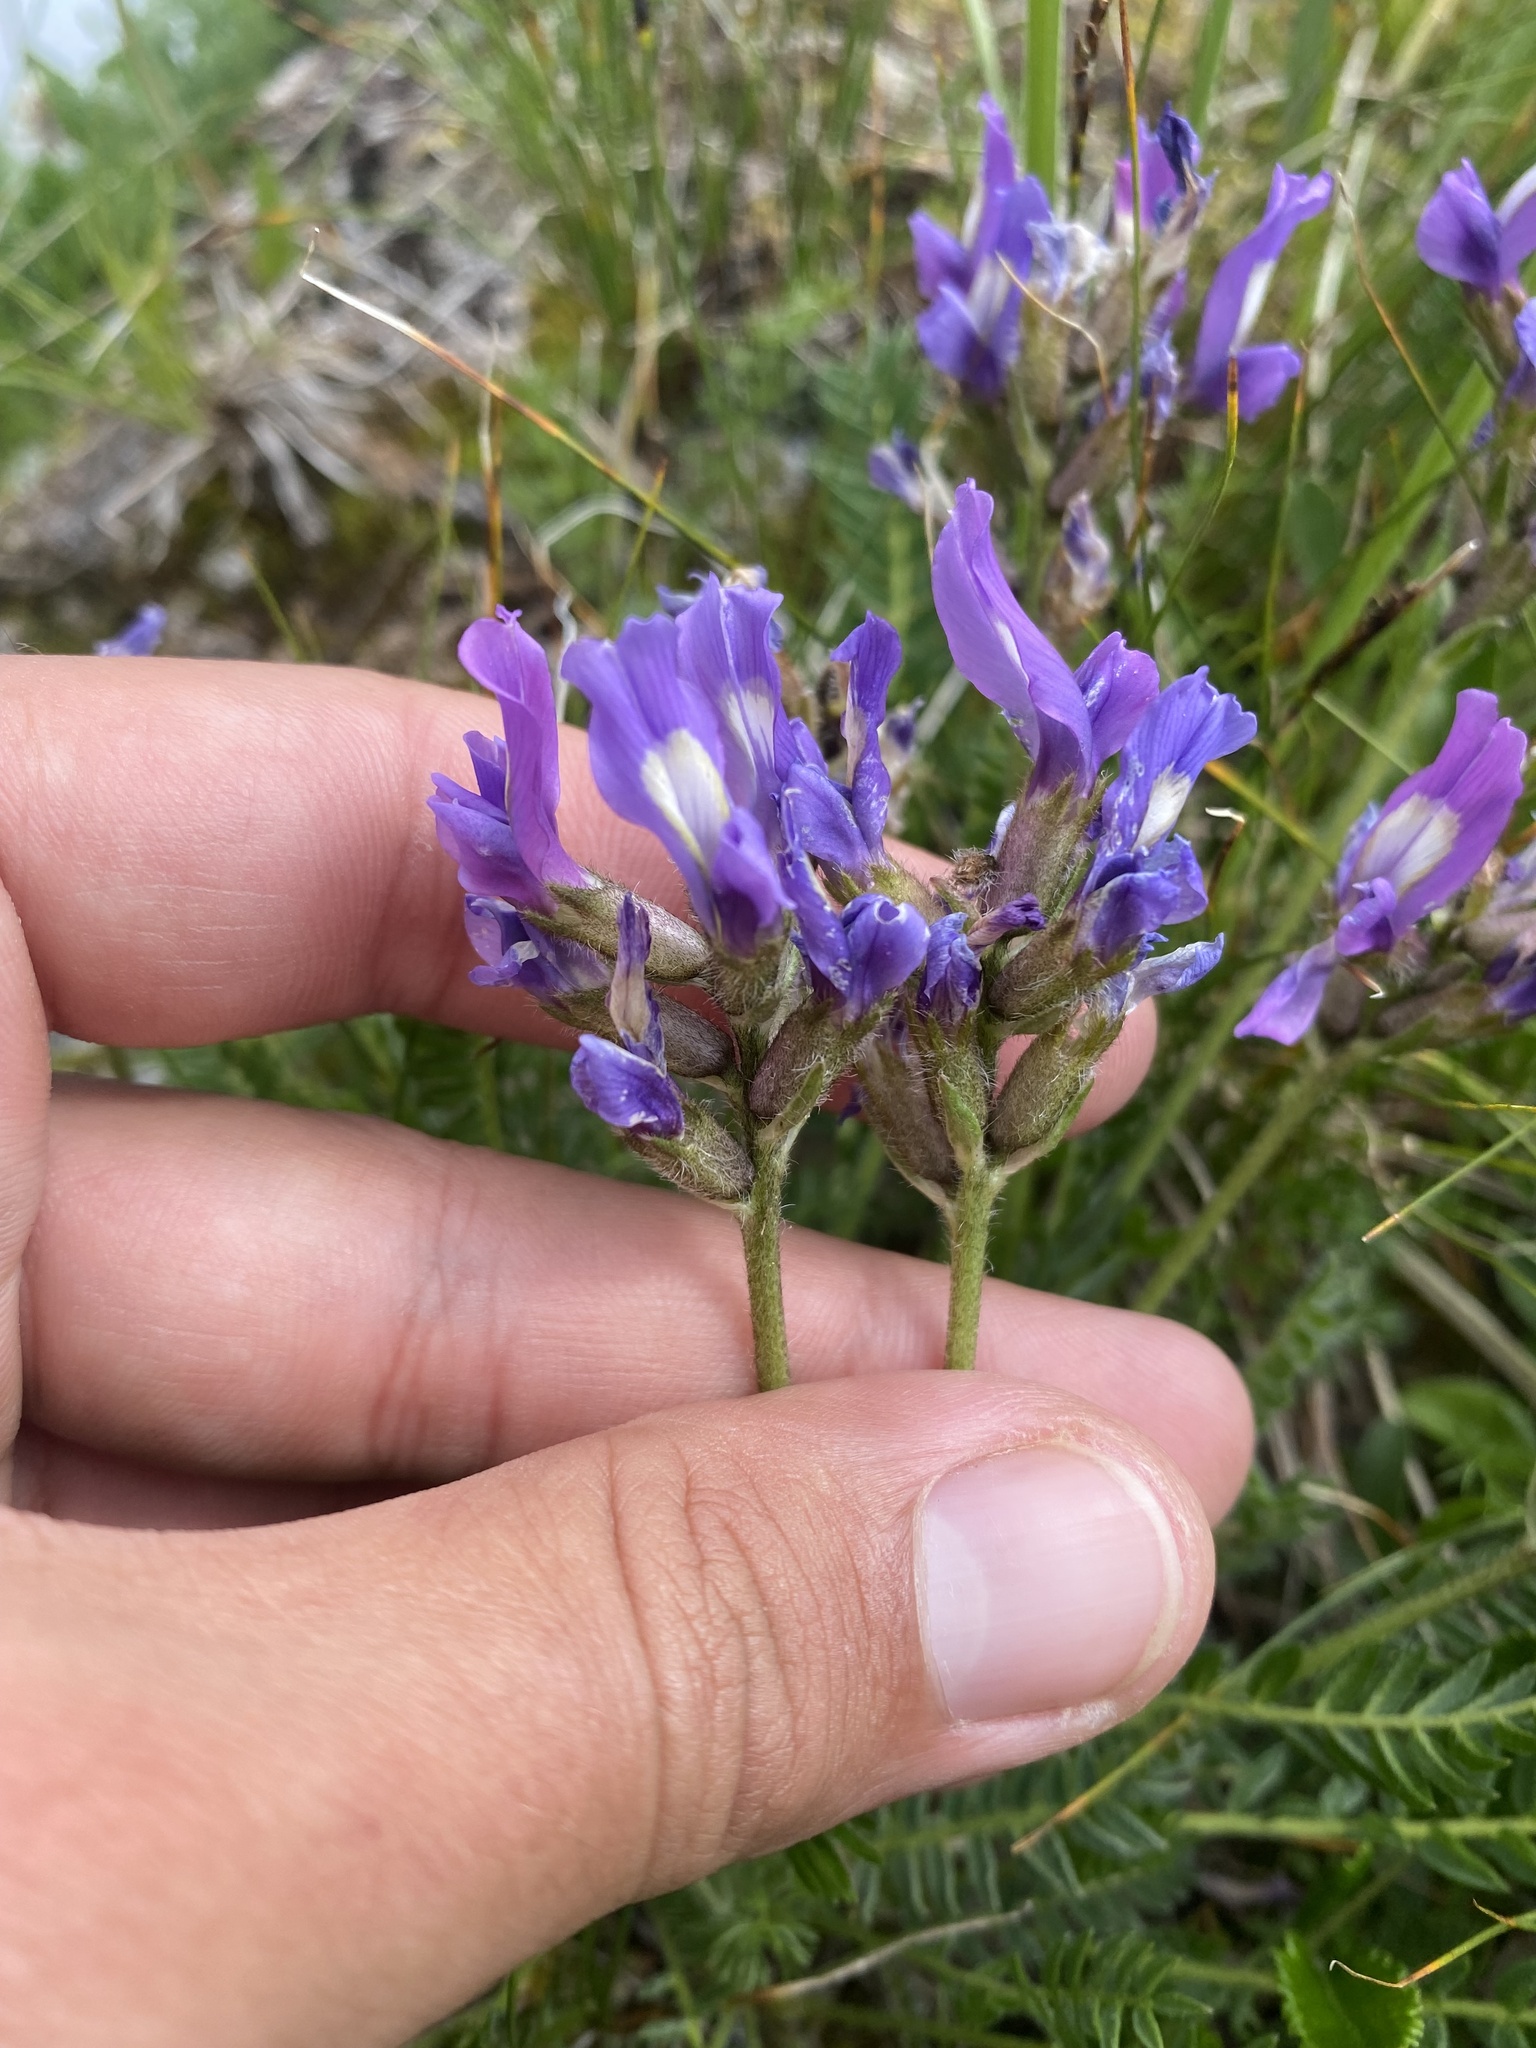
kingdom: Plantae
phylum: Tracheophyta
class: Magnoliopsida
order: Fabales
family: Fabaceae
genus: Oxytropis
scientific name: Oxytropis lazica
